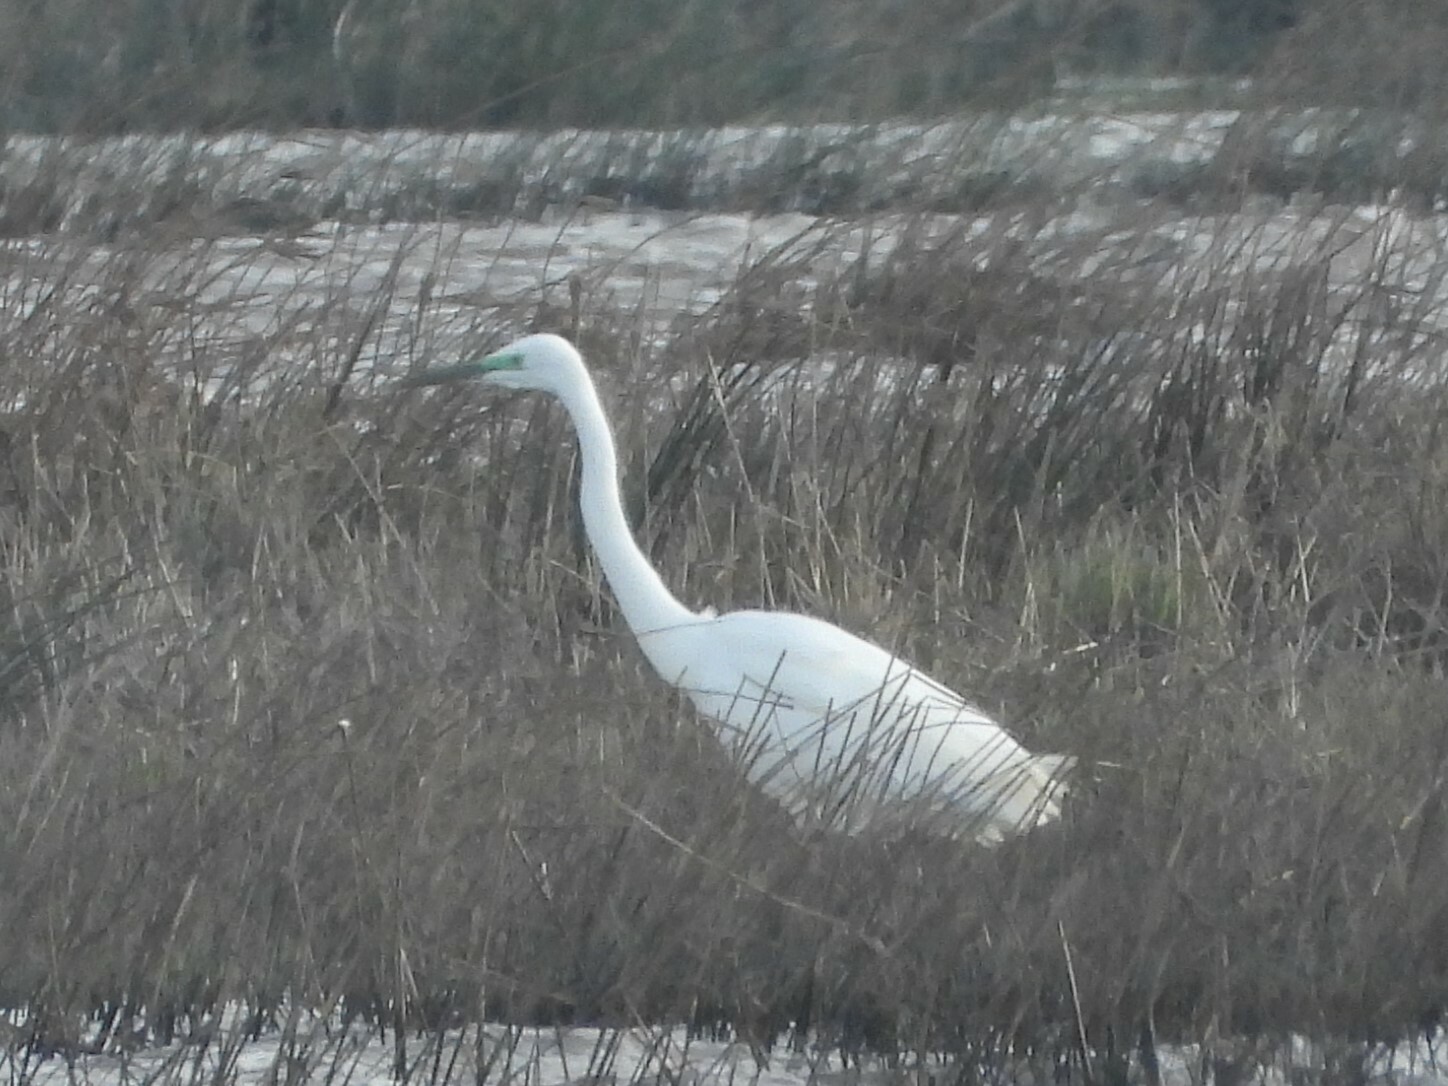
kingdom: Animalia
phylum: Chordata
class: Aves
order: Pelecaniformes
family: Ardeidae
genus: Ardea
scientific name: Ardea alba
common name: Great egret
